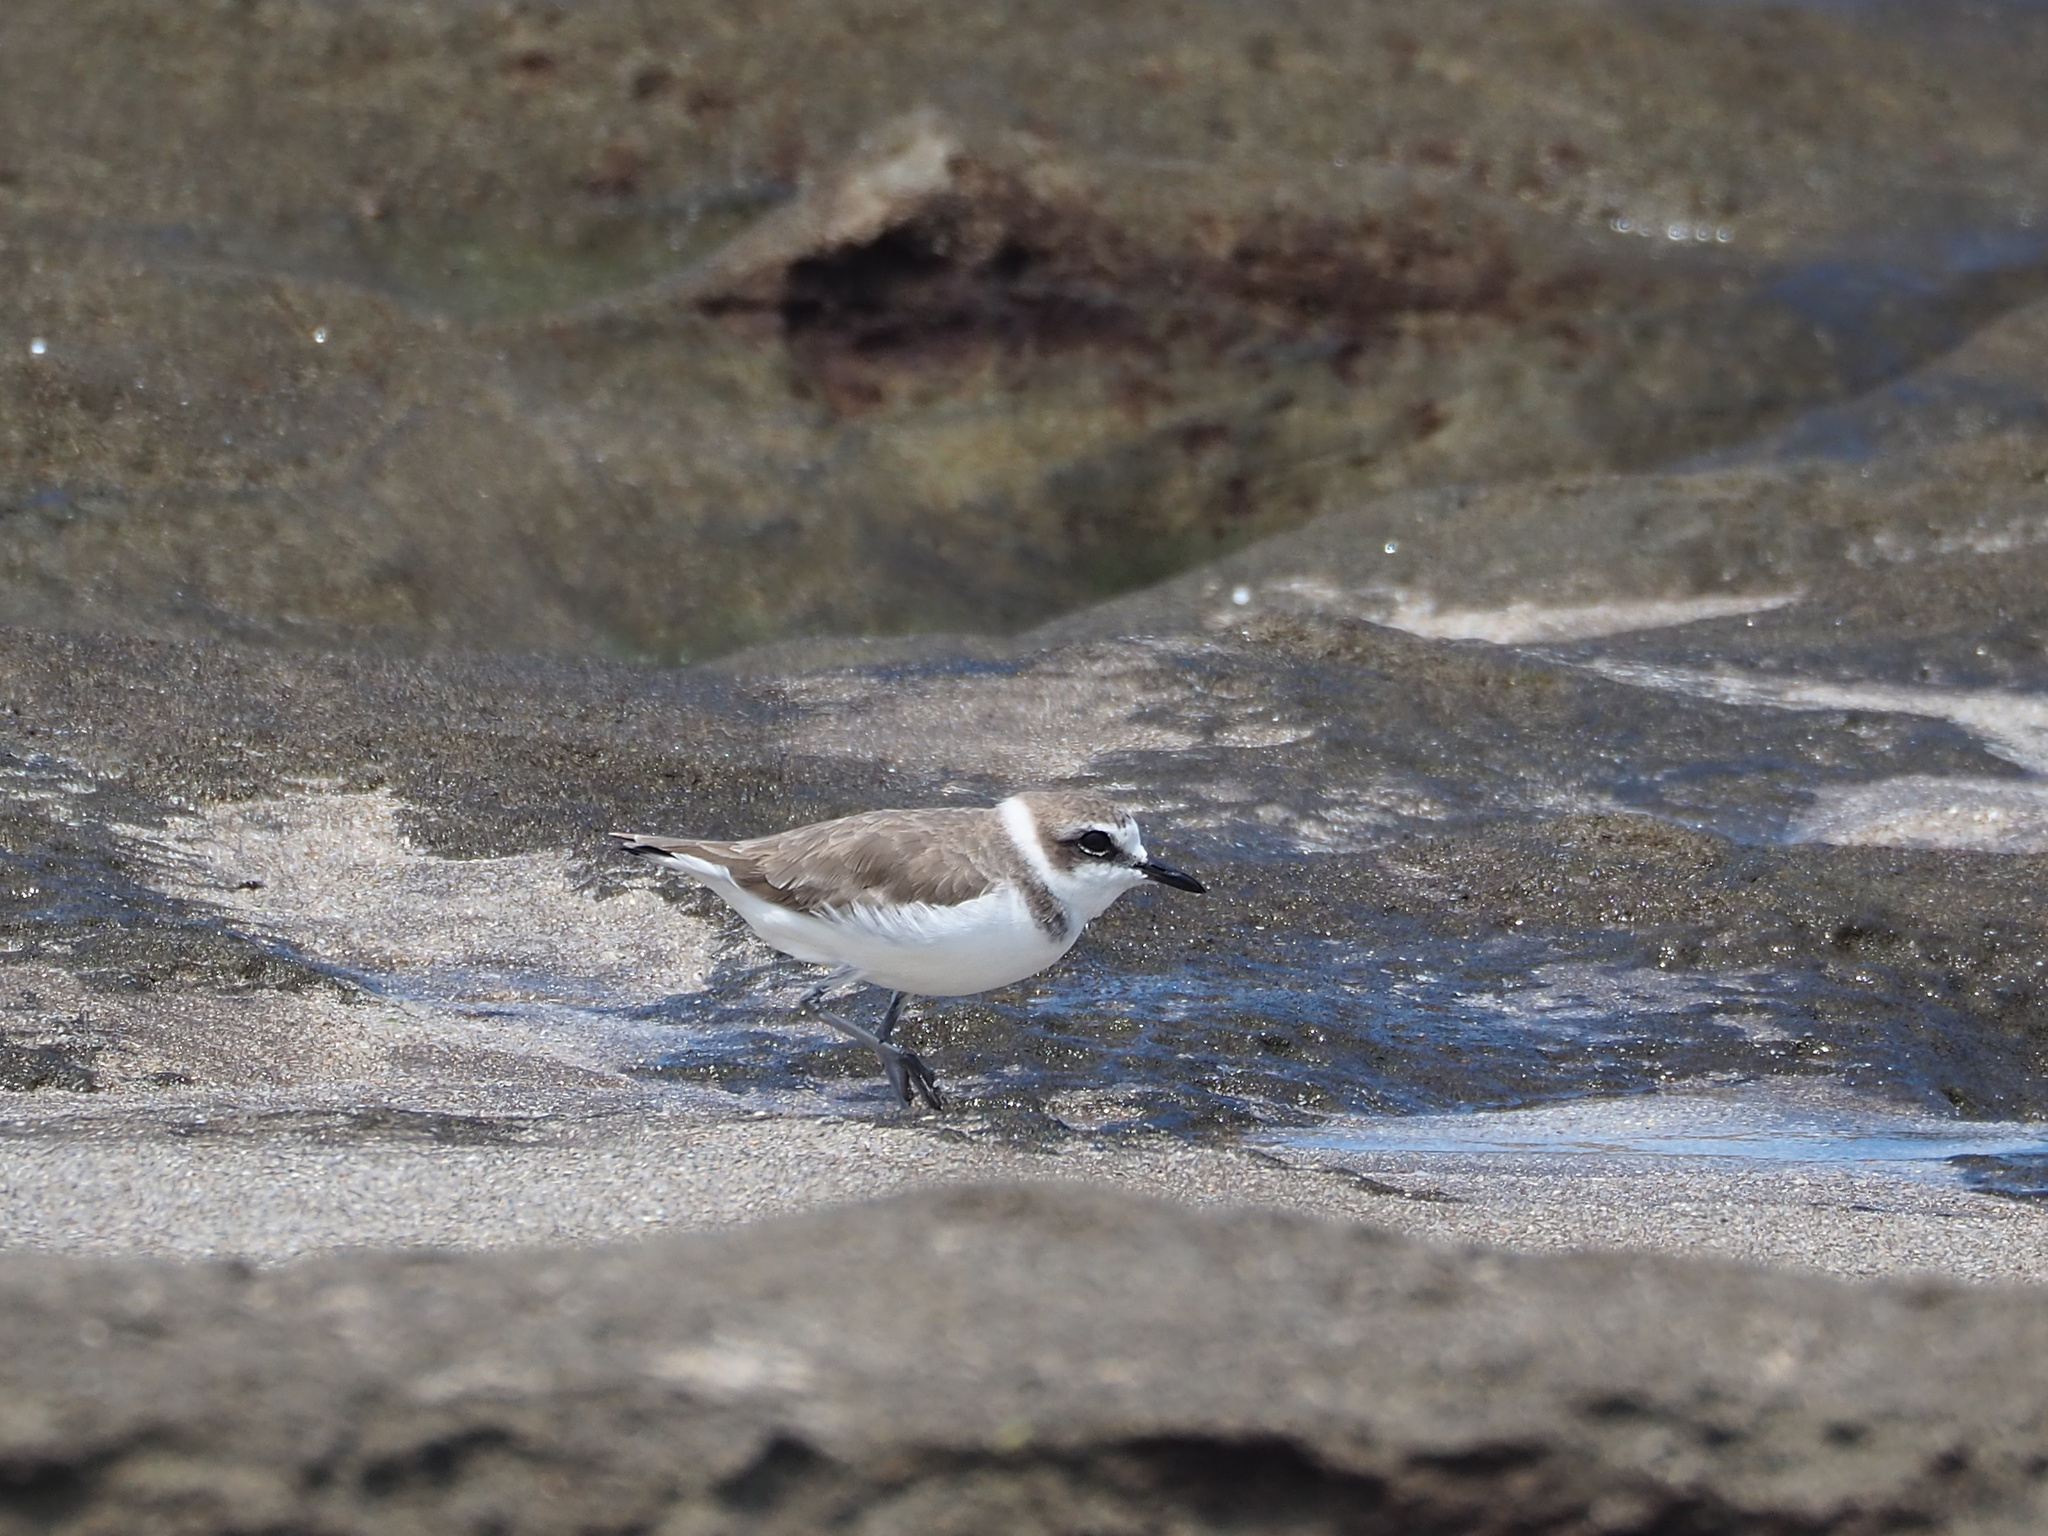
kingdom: Animalia
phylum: Chordata
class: Aves
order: Charadriiformes
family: Charadriidae
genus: Charadrius
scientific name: Charadrius alexandrinus
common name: Kentish plover
